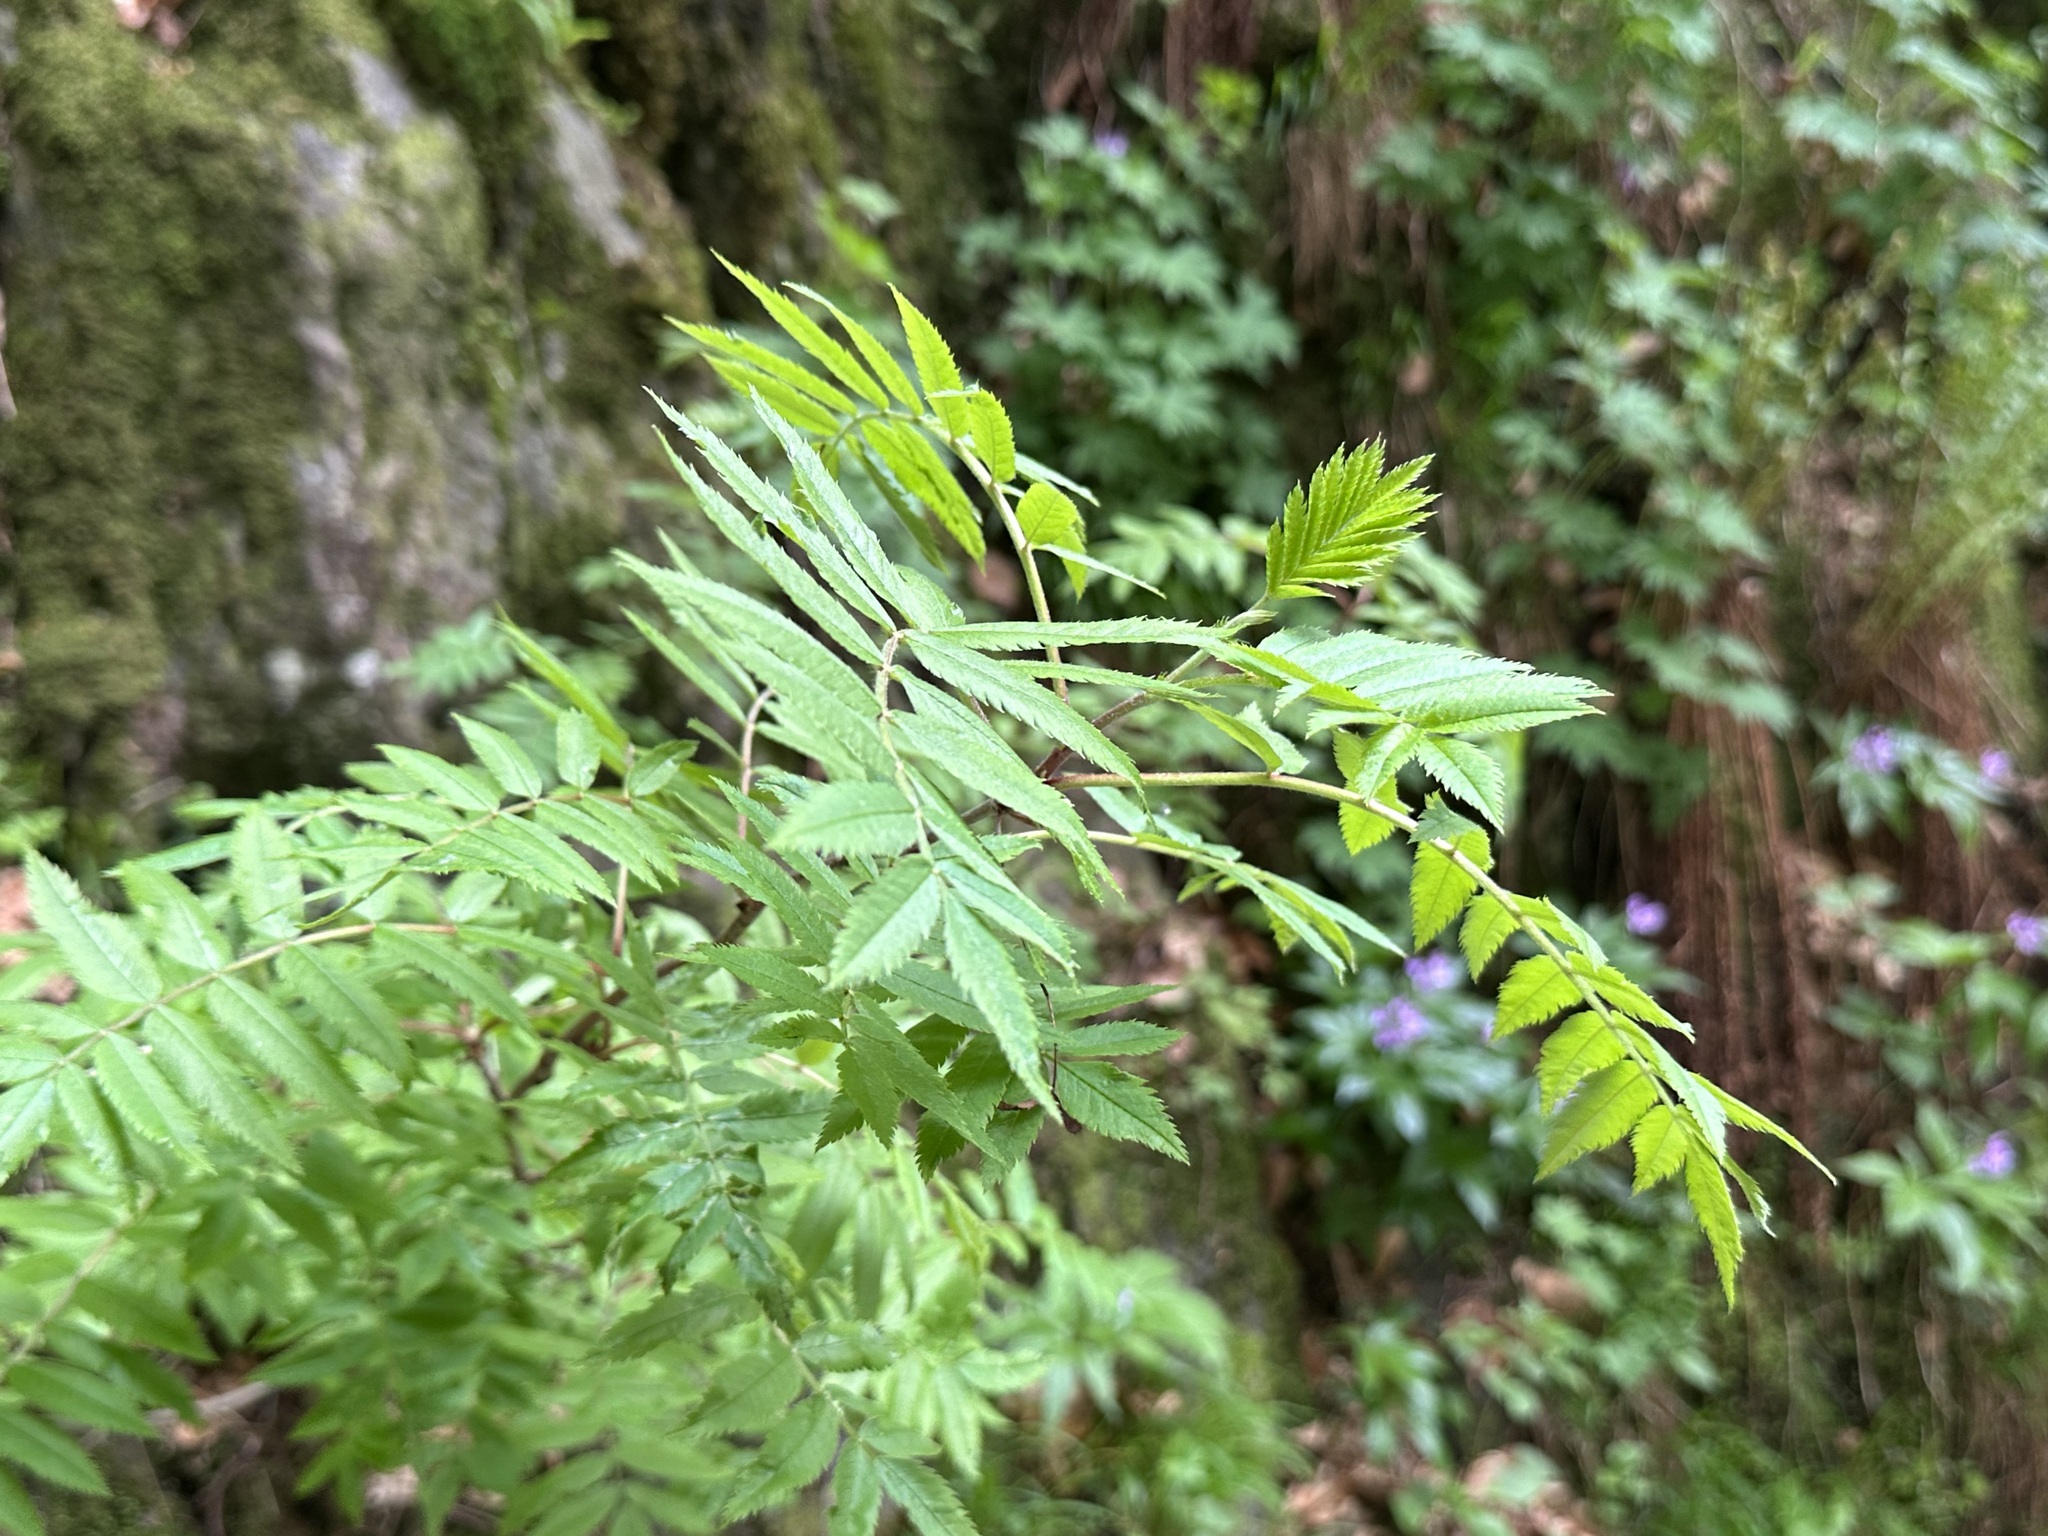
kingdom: Plantae
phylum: Tracheophyta
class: Magnoliopsida
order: Rosales
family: Rosaceae
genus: Sorbus
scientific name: Sorbus aucuparia
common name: Rowan
